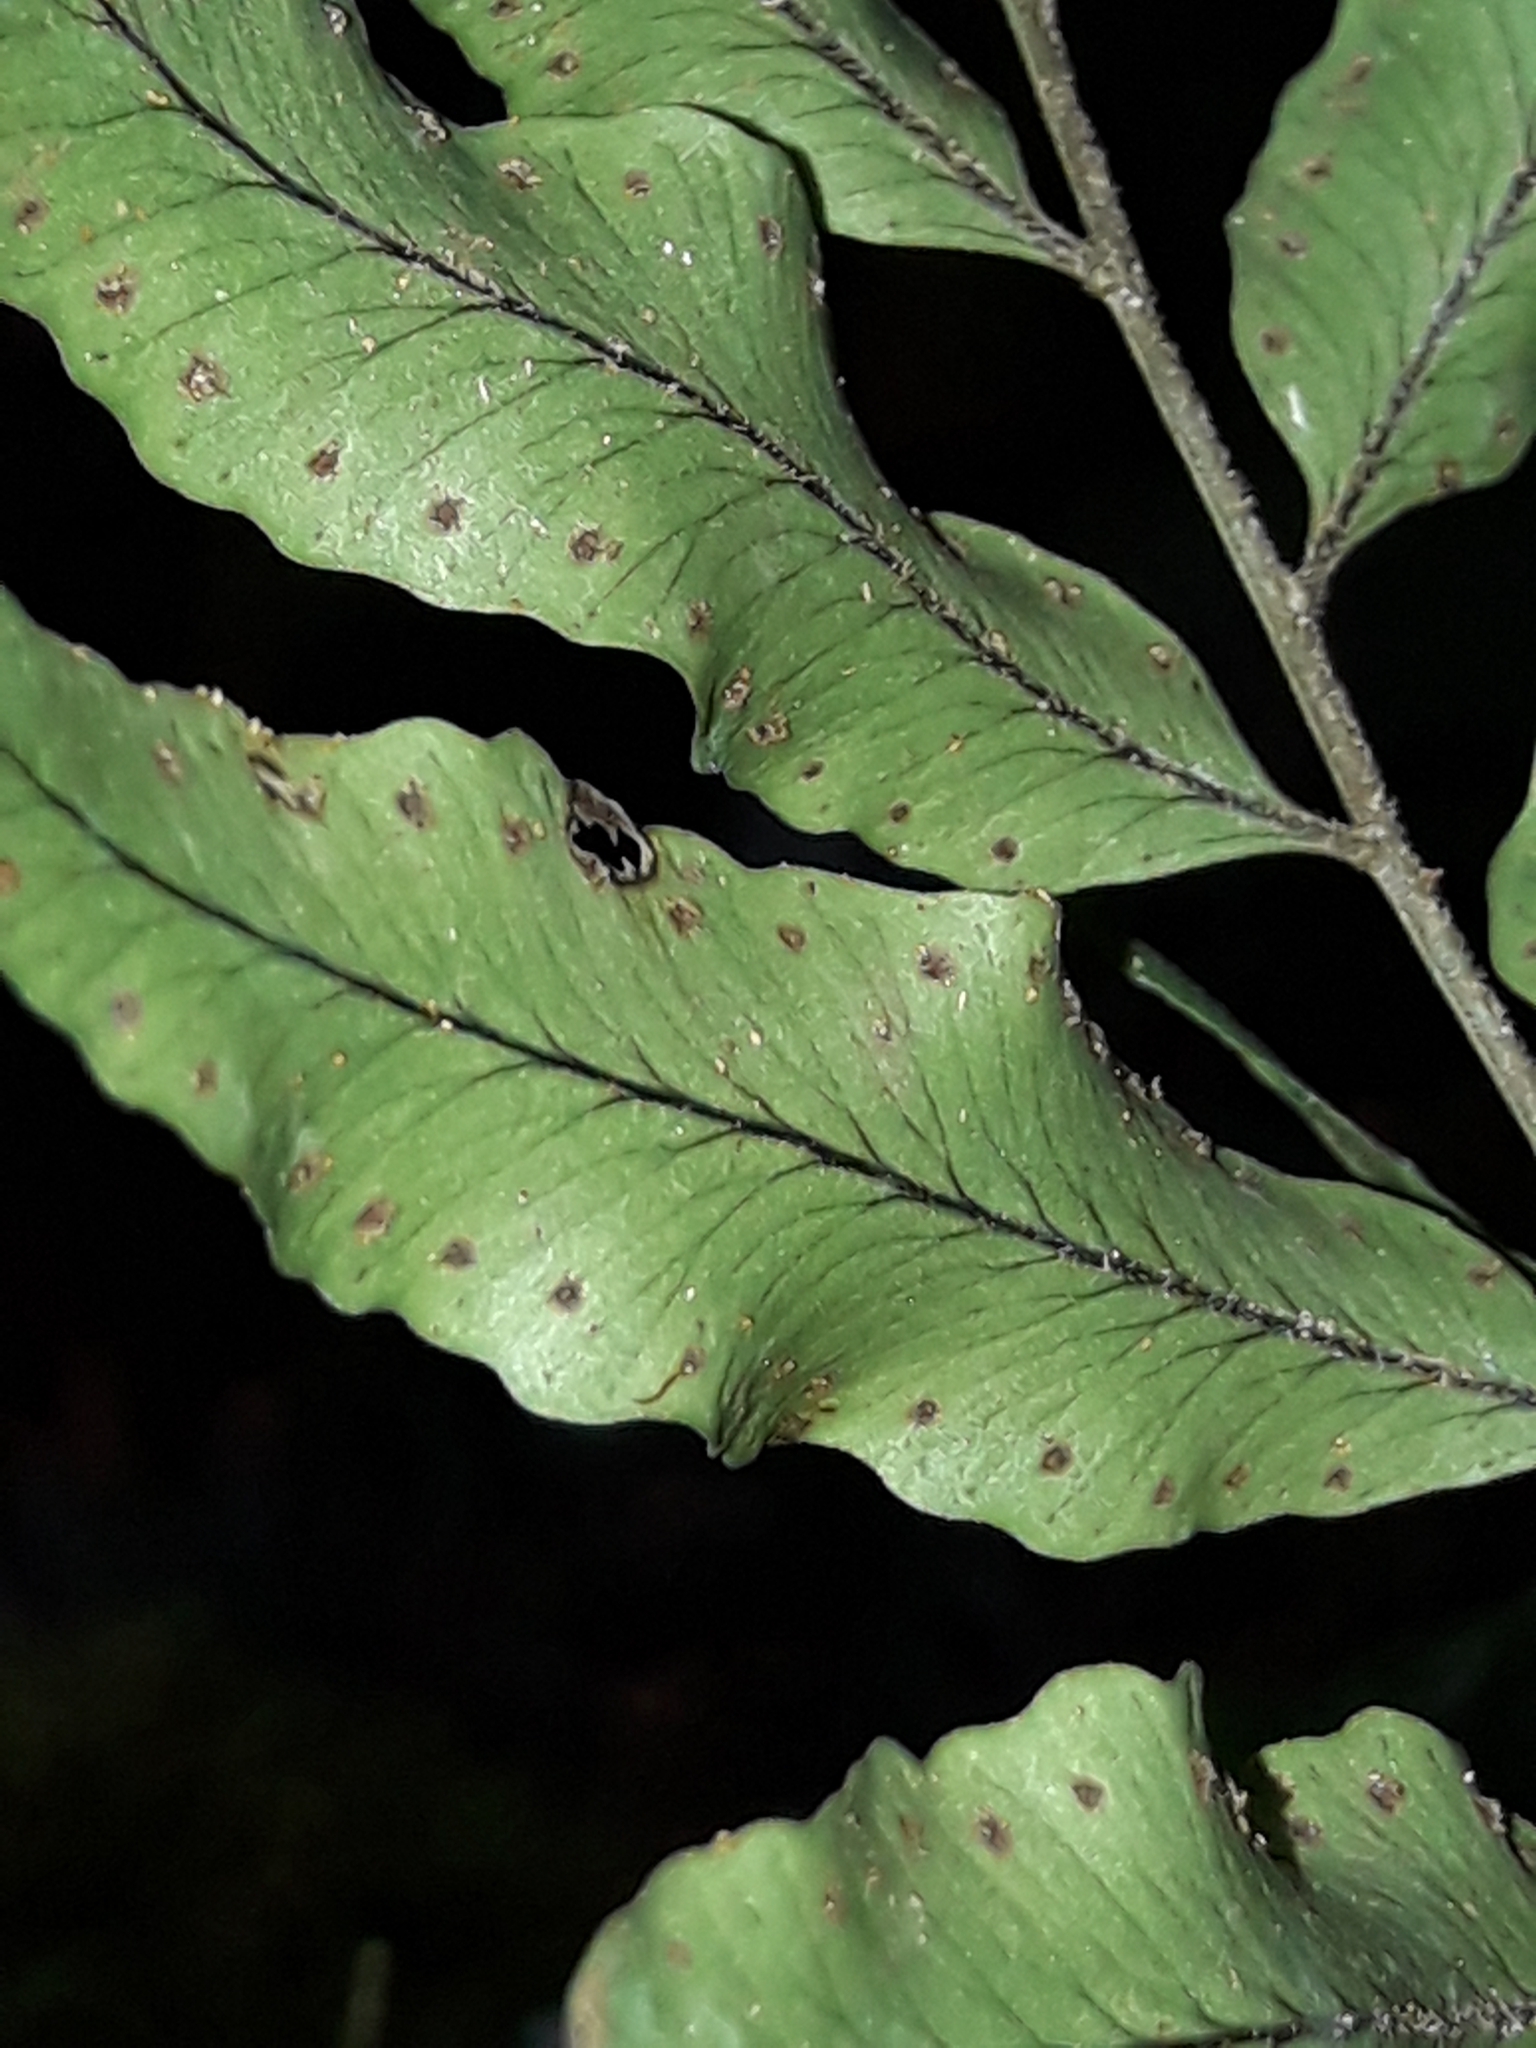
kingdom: Plantae
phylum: Tracheophyta
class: Polypodiopsida
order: Polypodiales
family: Tectariaceae
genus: Arthropteris
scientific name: Arthropteris tenella
